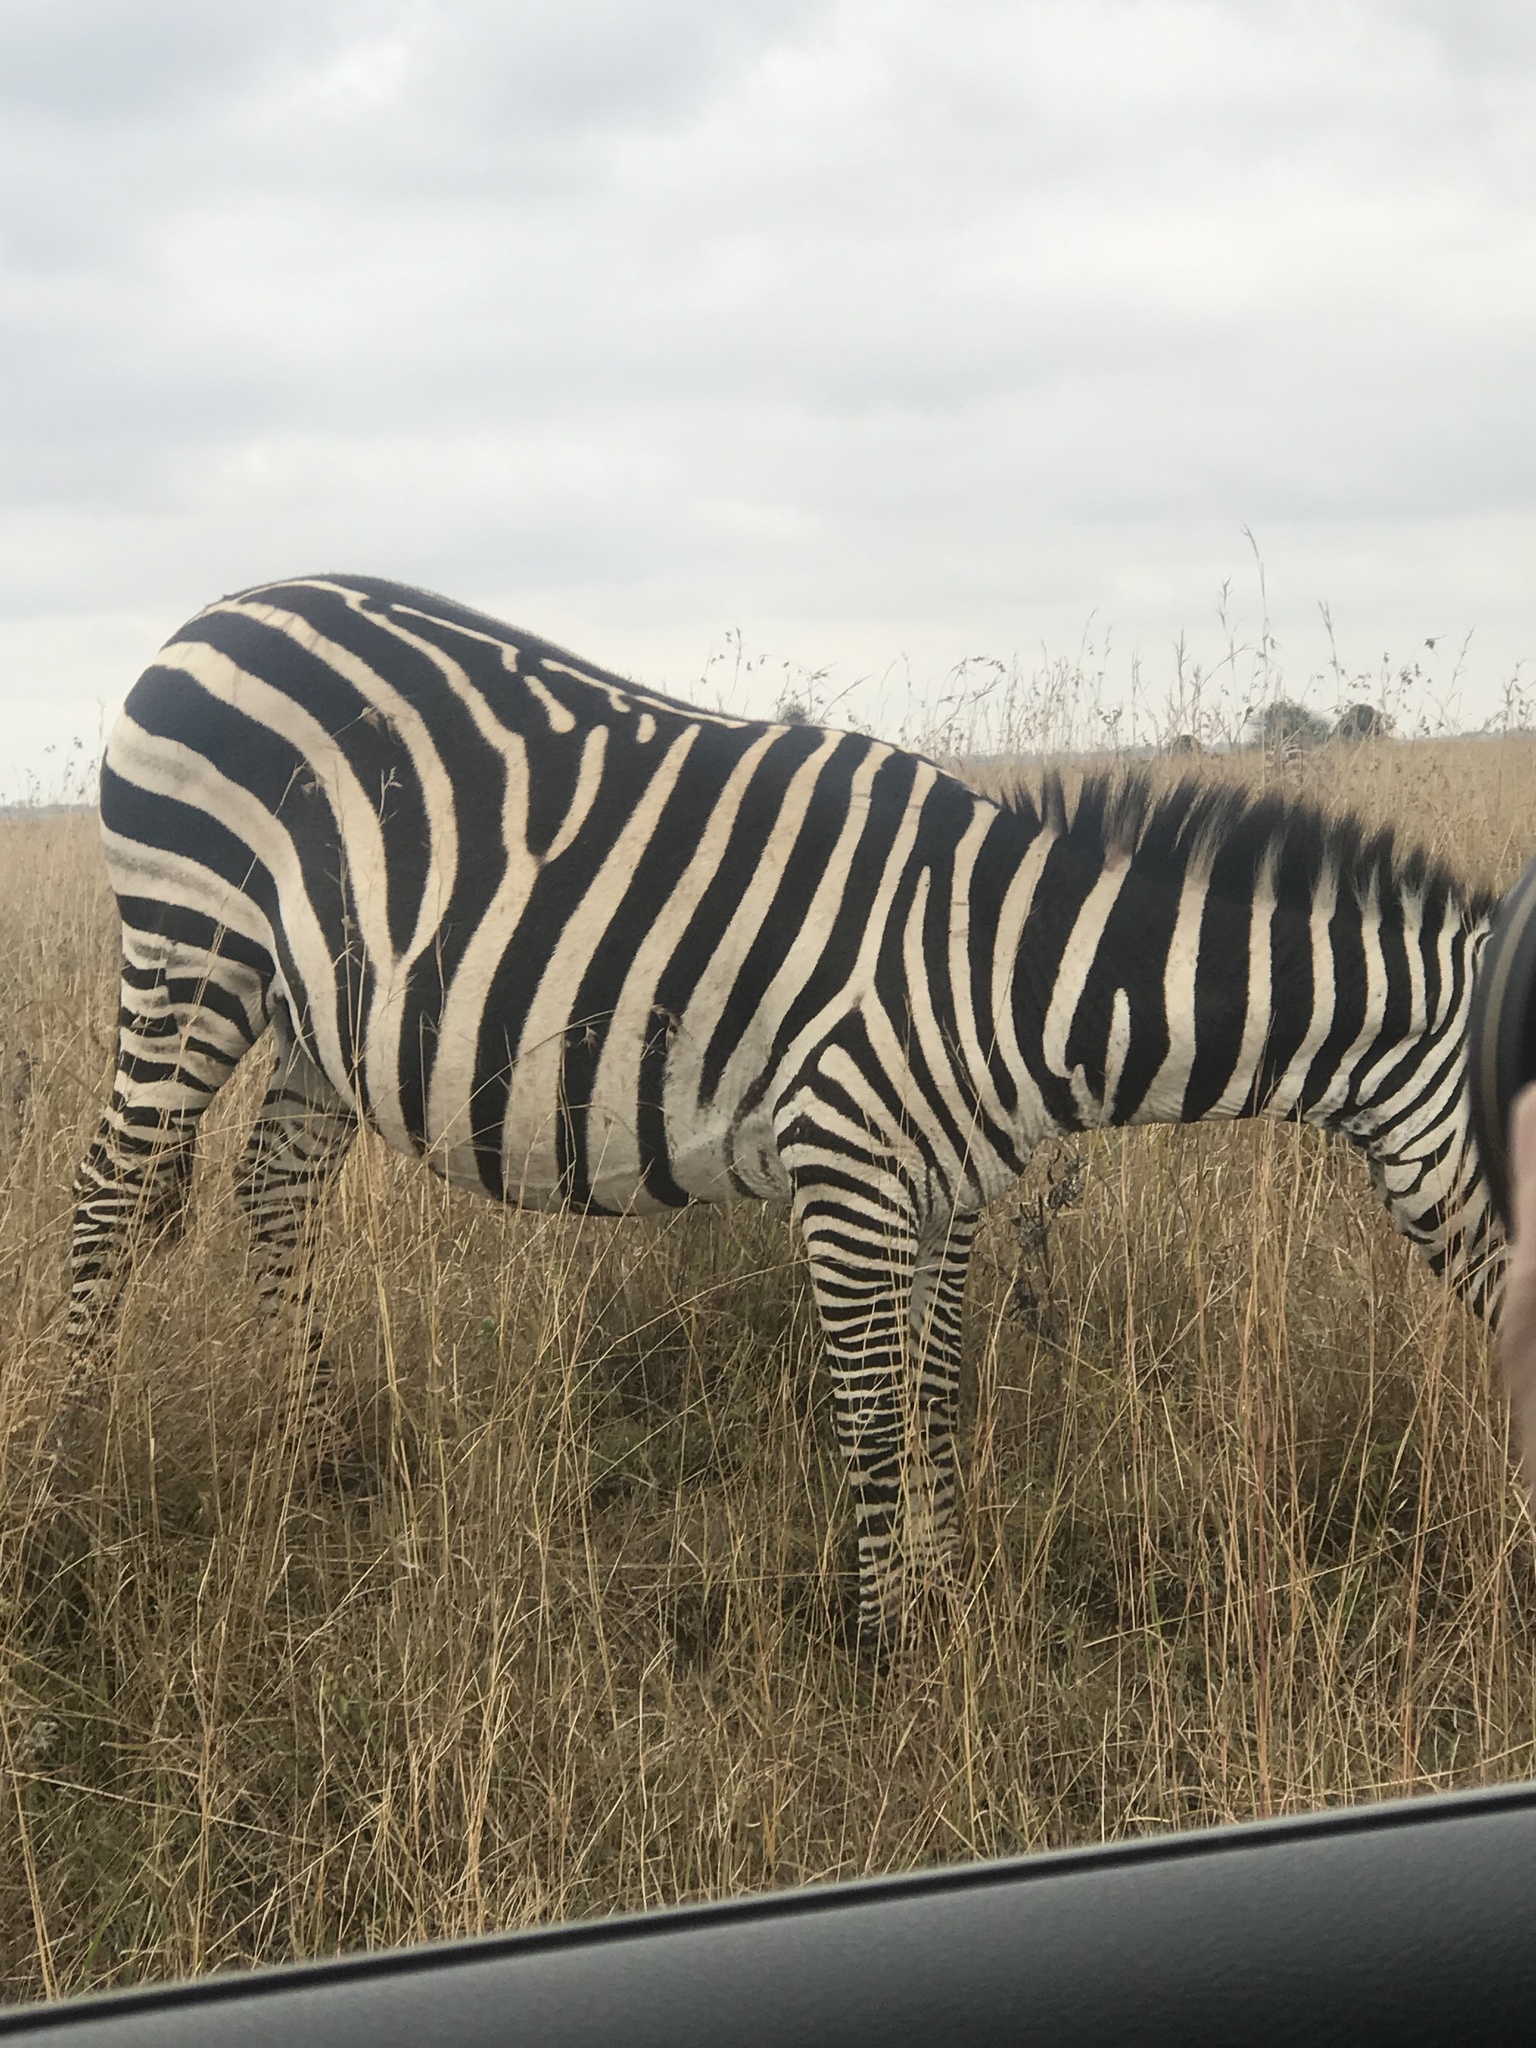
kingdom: Animalia
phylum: Chordata
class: Mammalia
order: Perissodactyla
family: Equidae
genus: Equus
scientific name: Equus quagga
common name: Plains zebra
